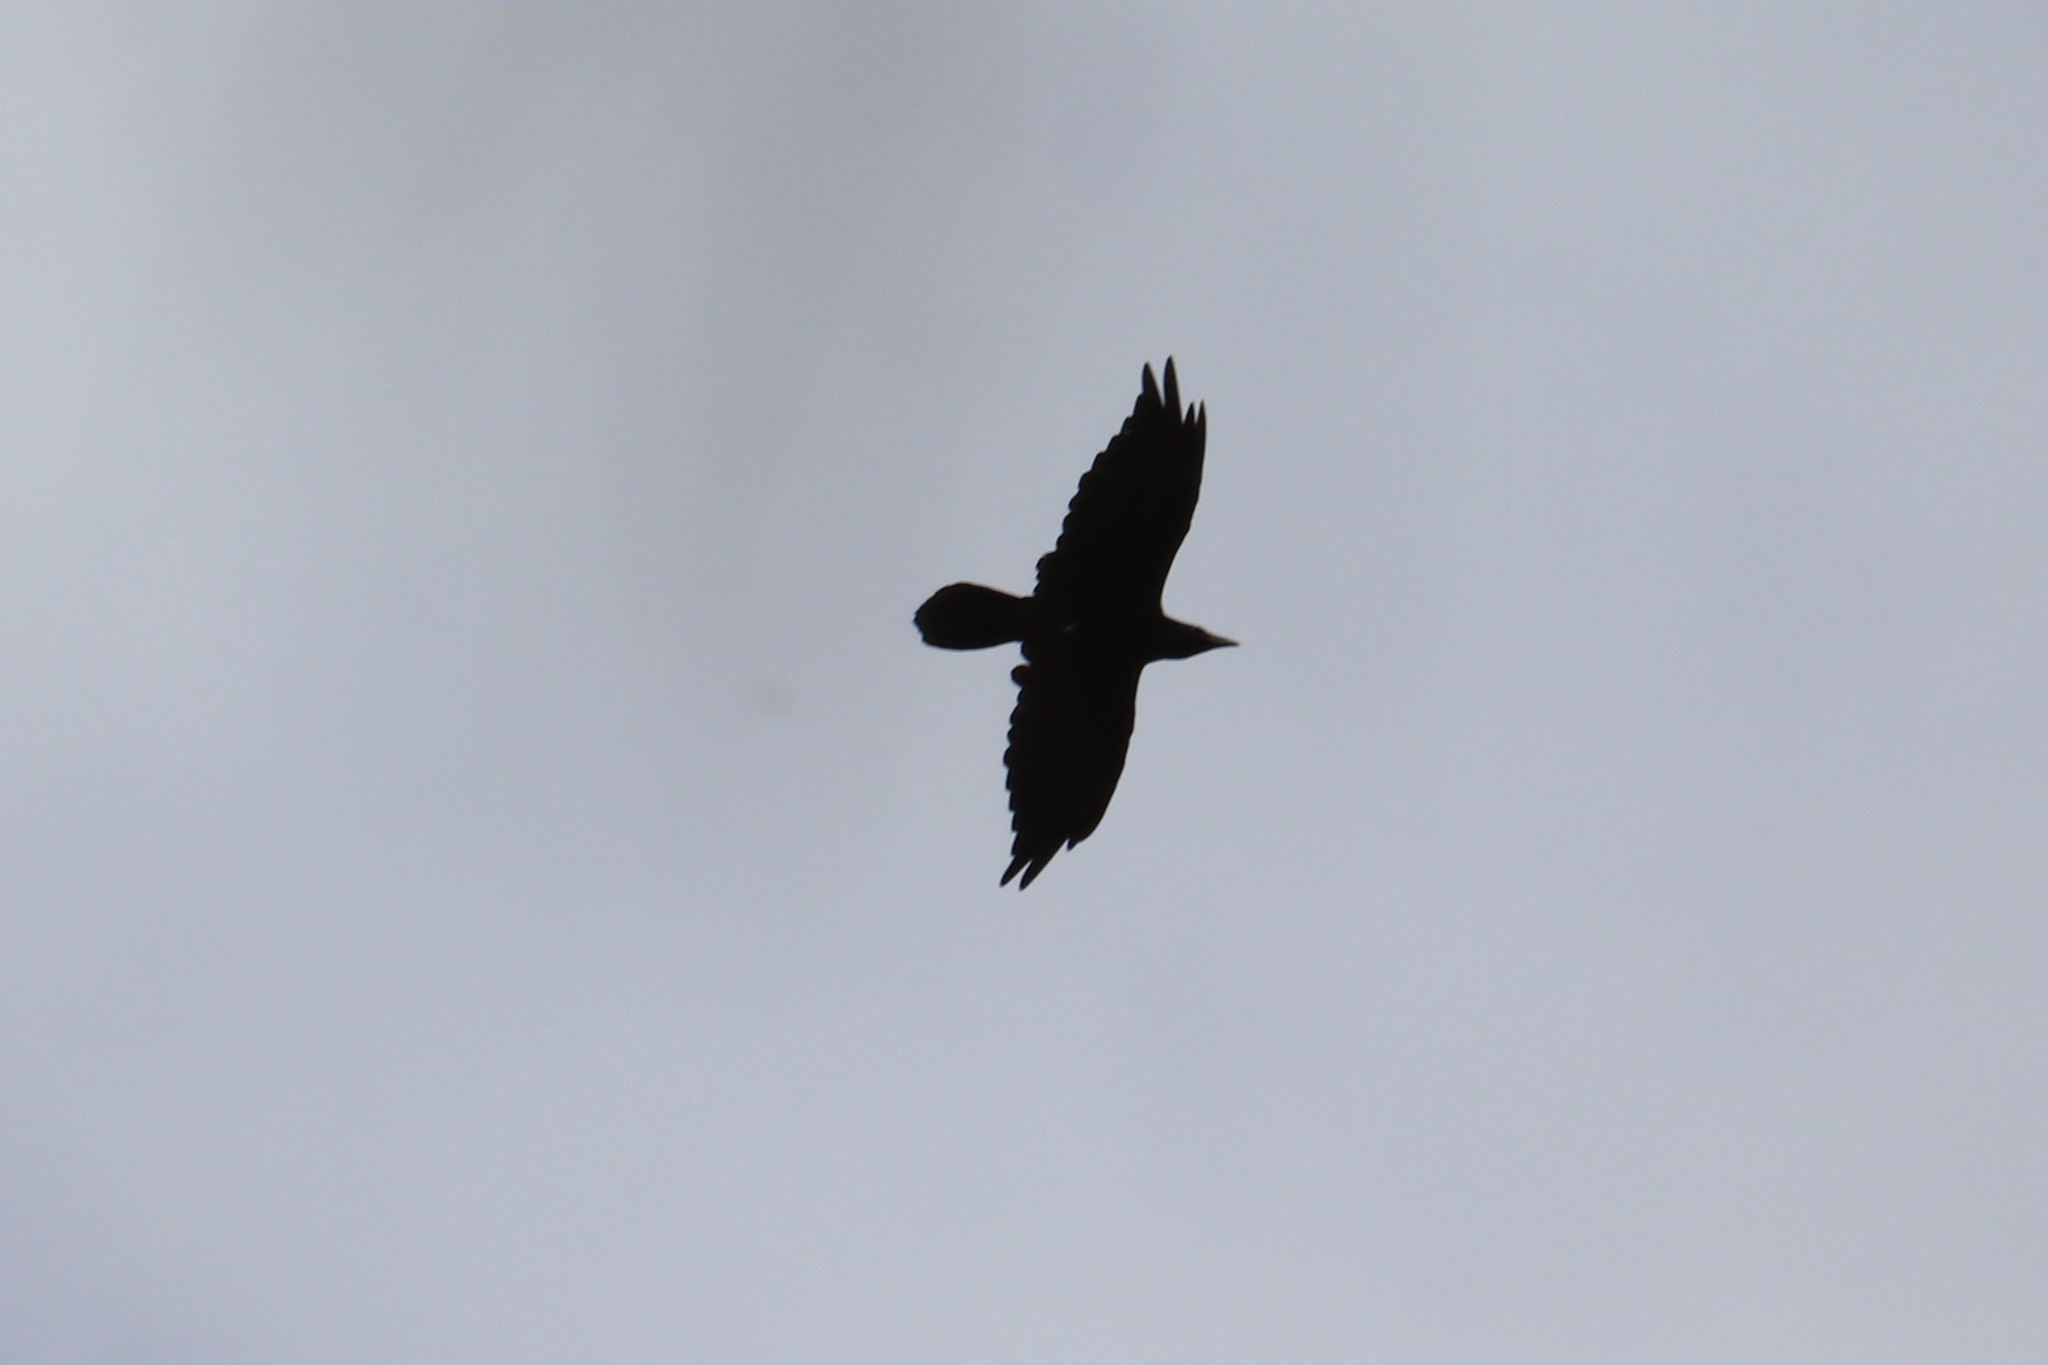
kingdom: Animalia
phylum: Chordata
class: Aves
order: Passeriformes
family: Corvidae
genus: Corvus
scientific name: Corvus corax
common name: Common raven
